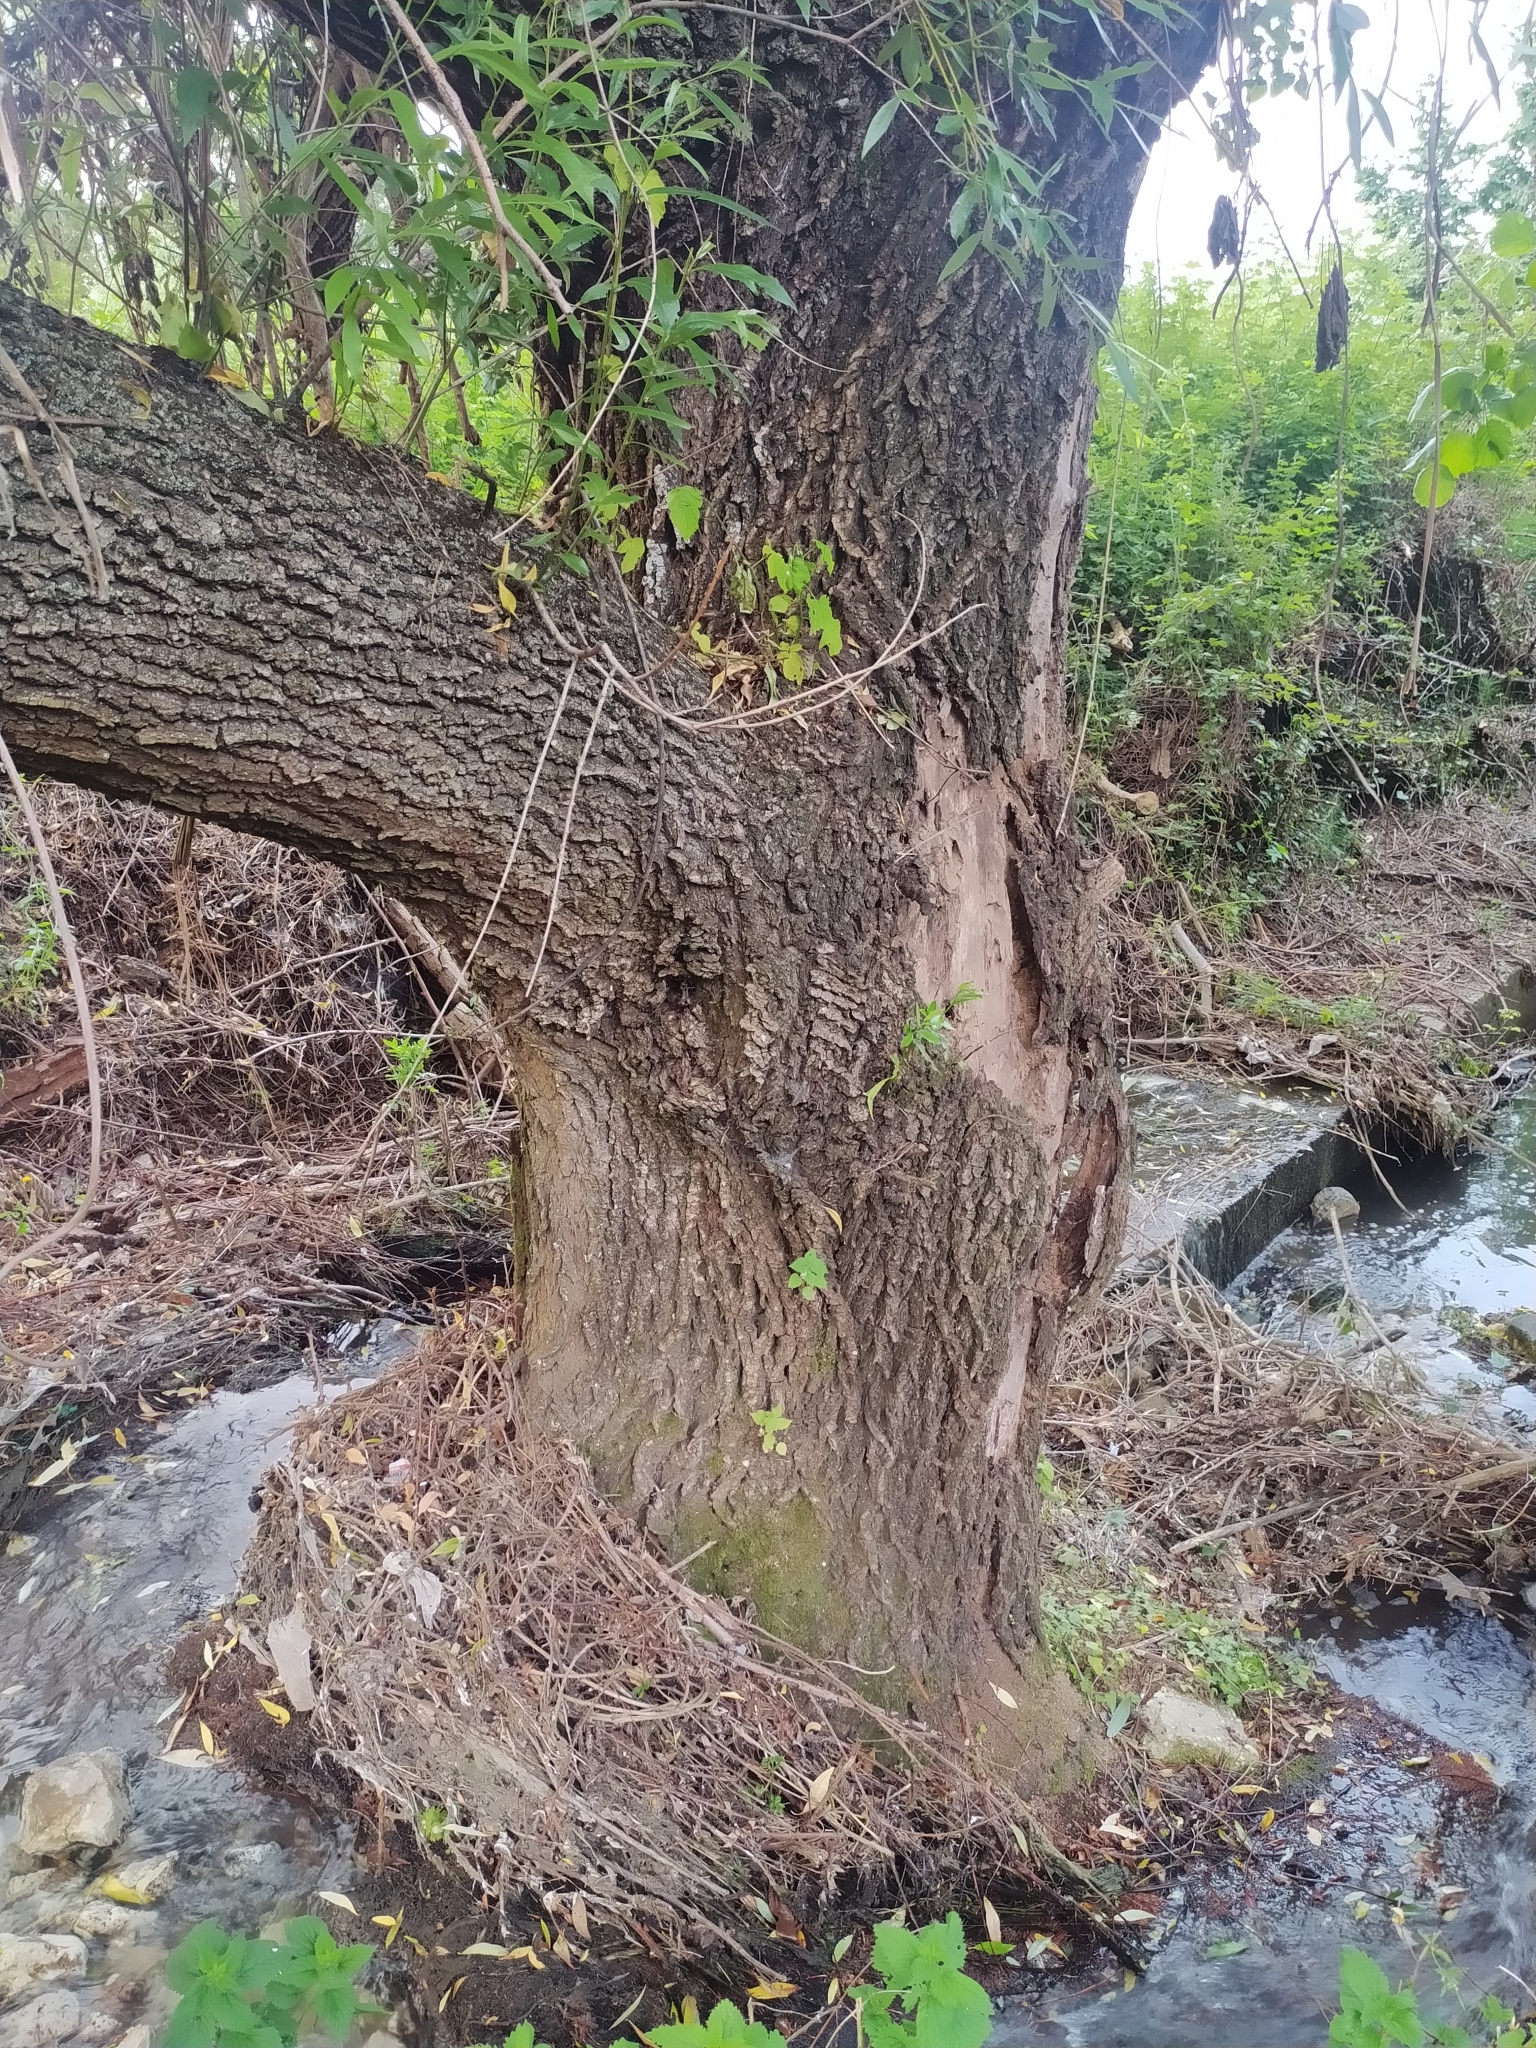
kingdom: Plantae
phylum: Tracheophyta
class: Magnoliopsida
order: Malpighiales
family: Salicaceae
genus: Salix
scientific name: Salix alba
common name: White willow
